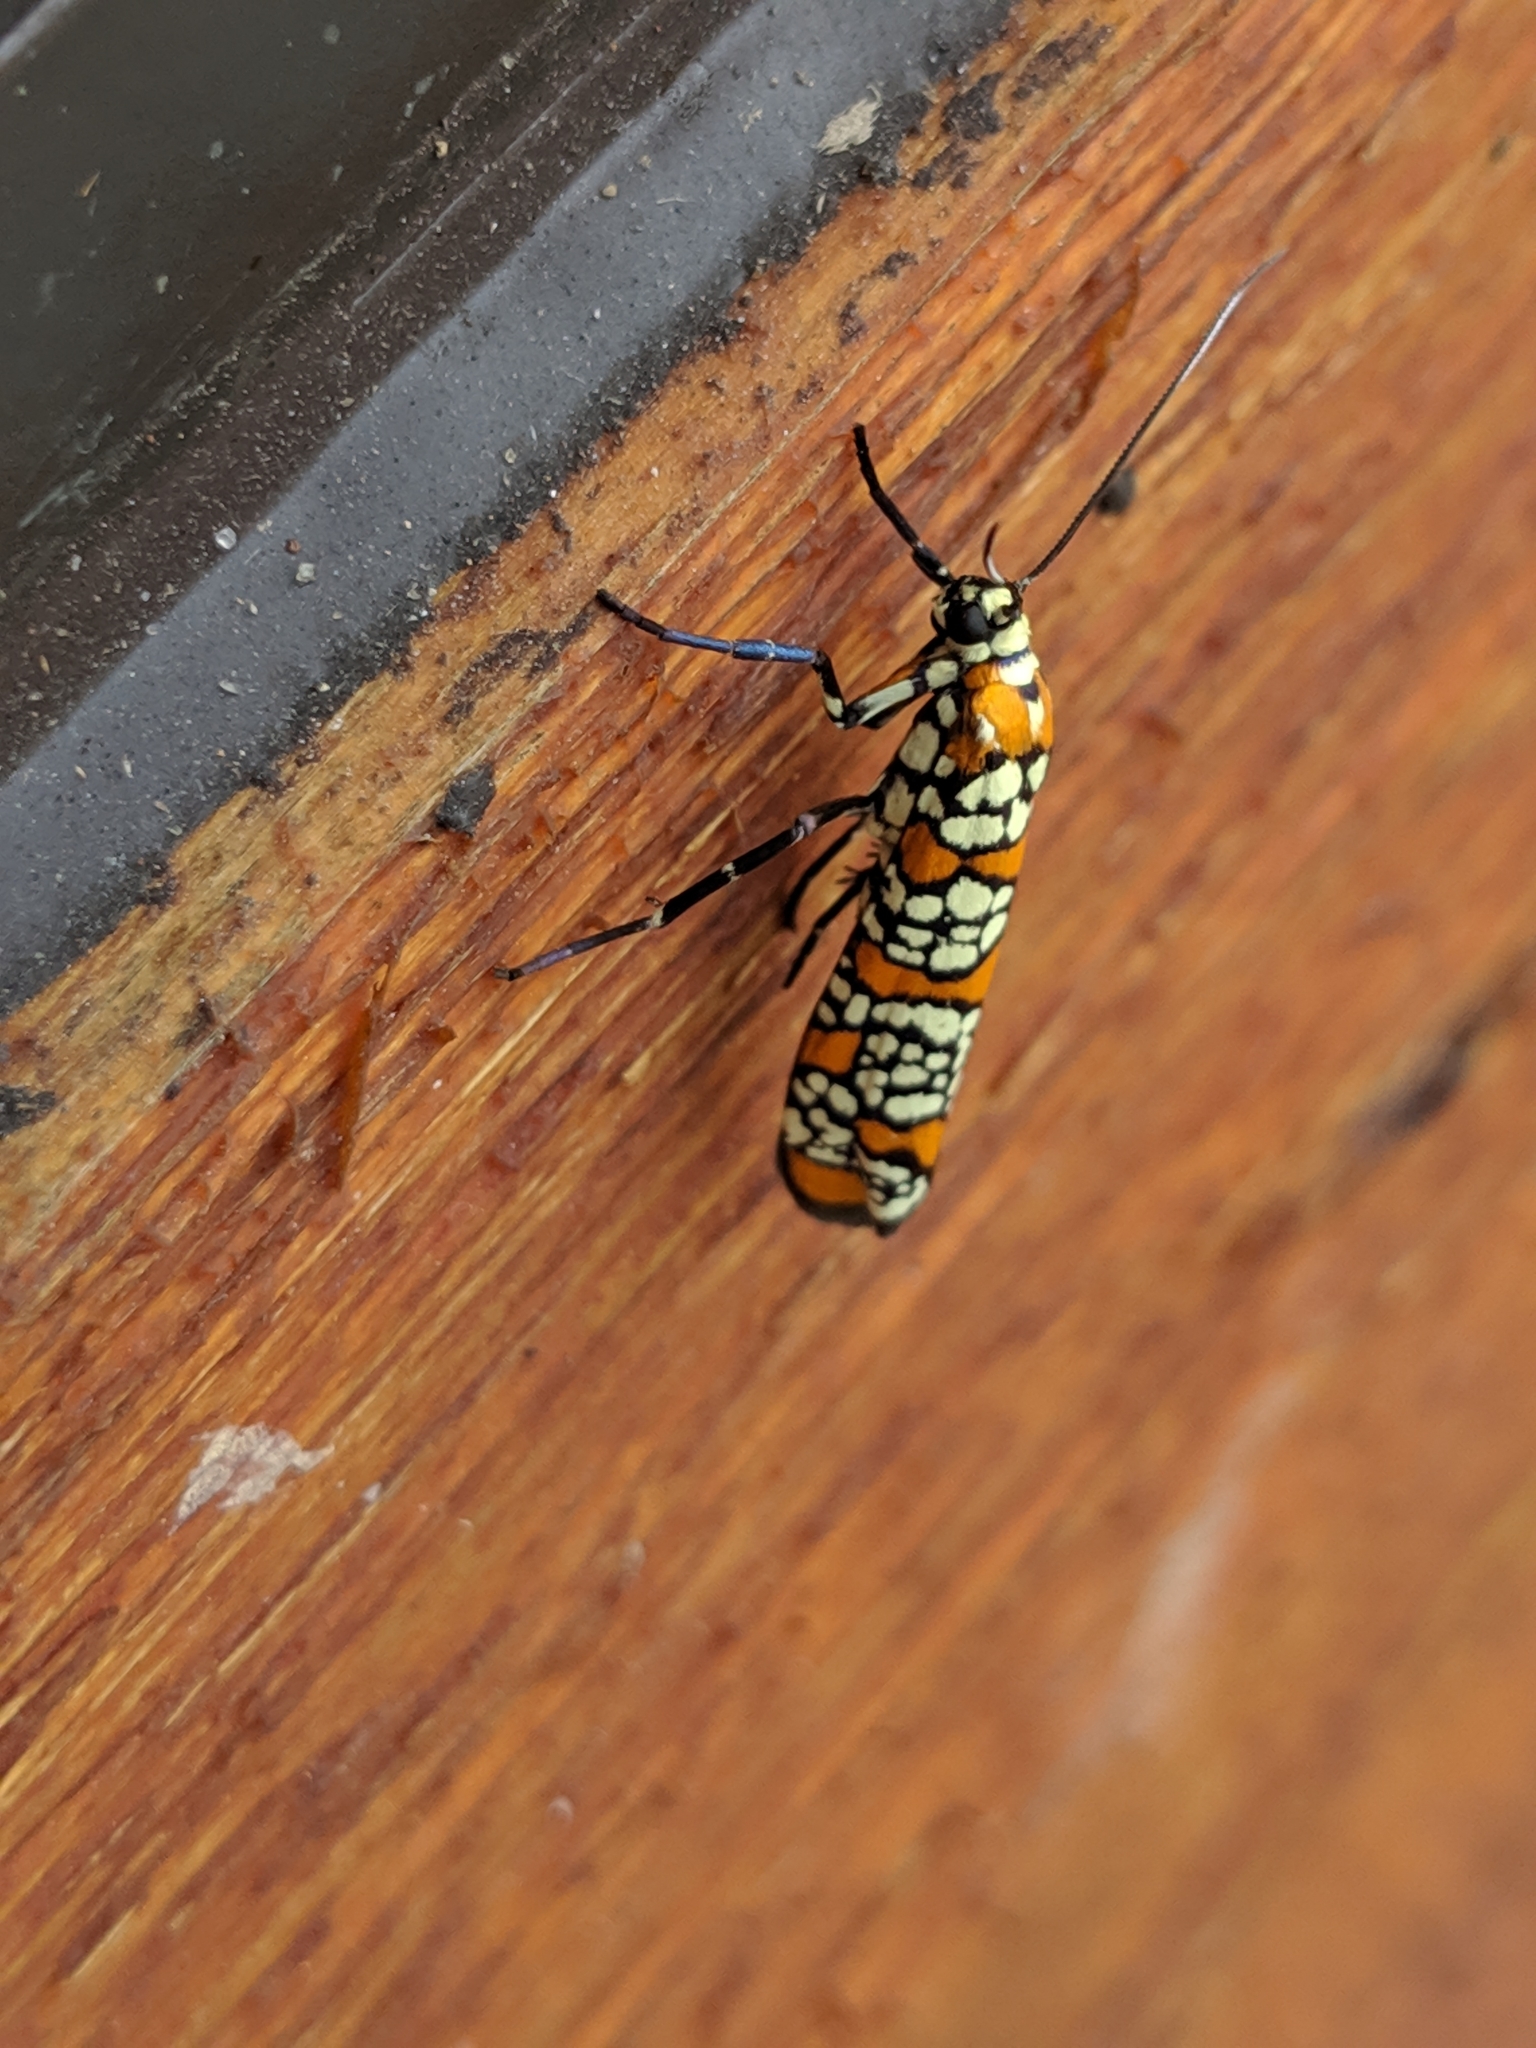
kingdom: Animalia
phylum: Arthropoda
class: Insecta
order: Lepidoptera
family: Attevidae
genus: Atteva
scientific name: Atteva punctella
